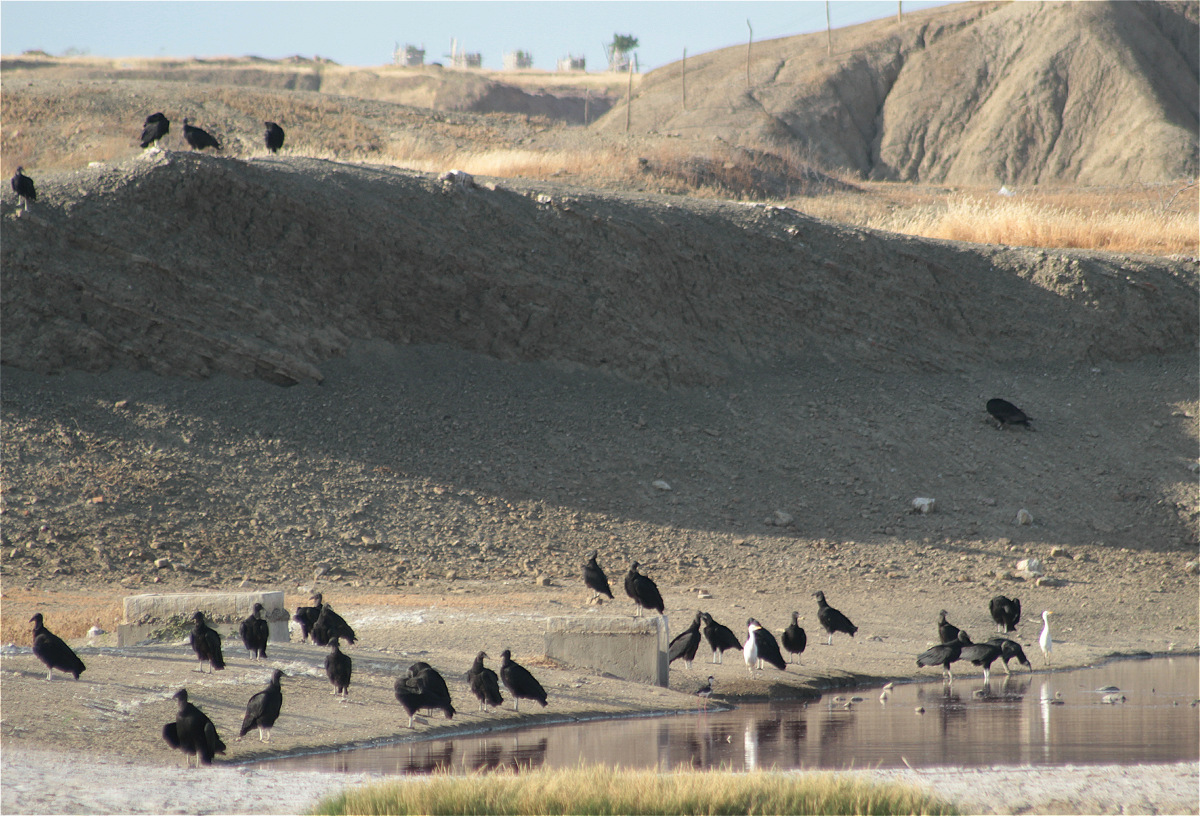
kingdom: Animalia
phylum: Chordata
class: Aves
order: Accipitriformes
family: Cathartidae
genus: Coragyps
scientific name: Coragyps atratus
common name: Black vulture
